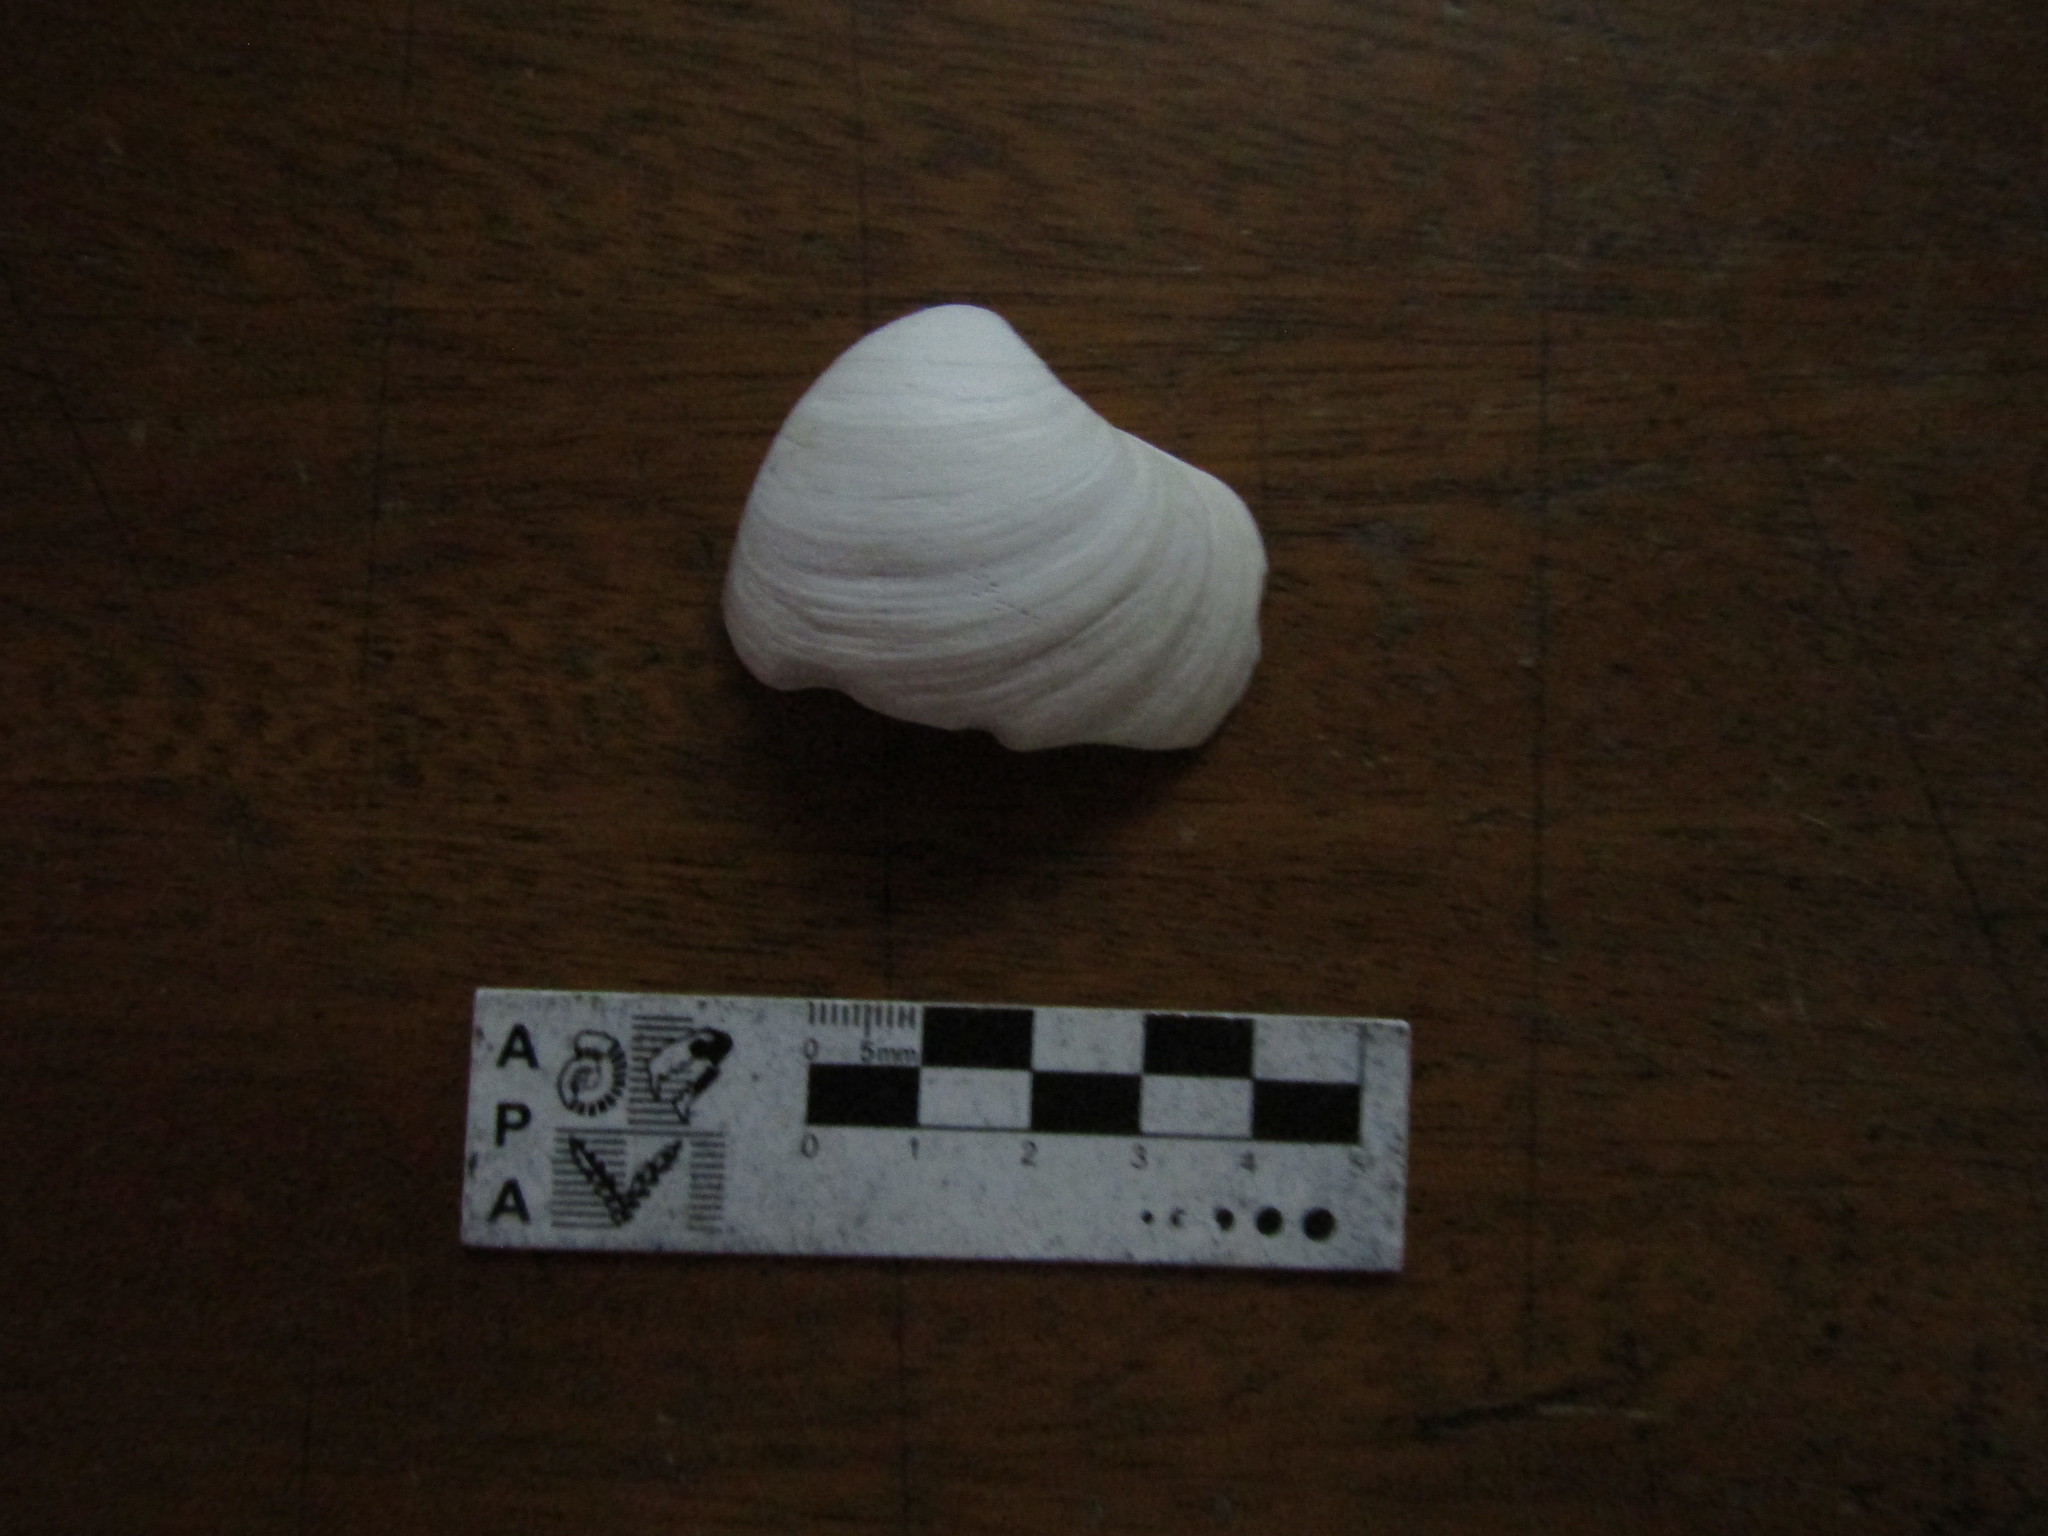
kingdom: Animalia
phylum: Mollusca
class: Bivalvia
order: Venerida
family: Veneridae
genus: Proteopitar
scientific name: Proteopitar patagonicus
